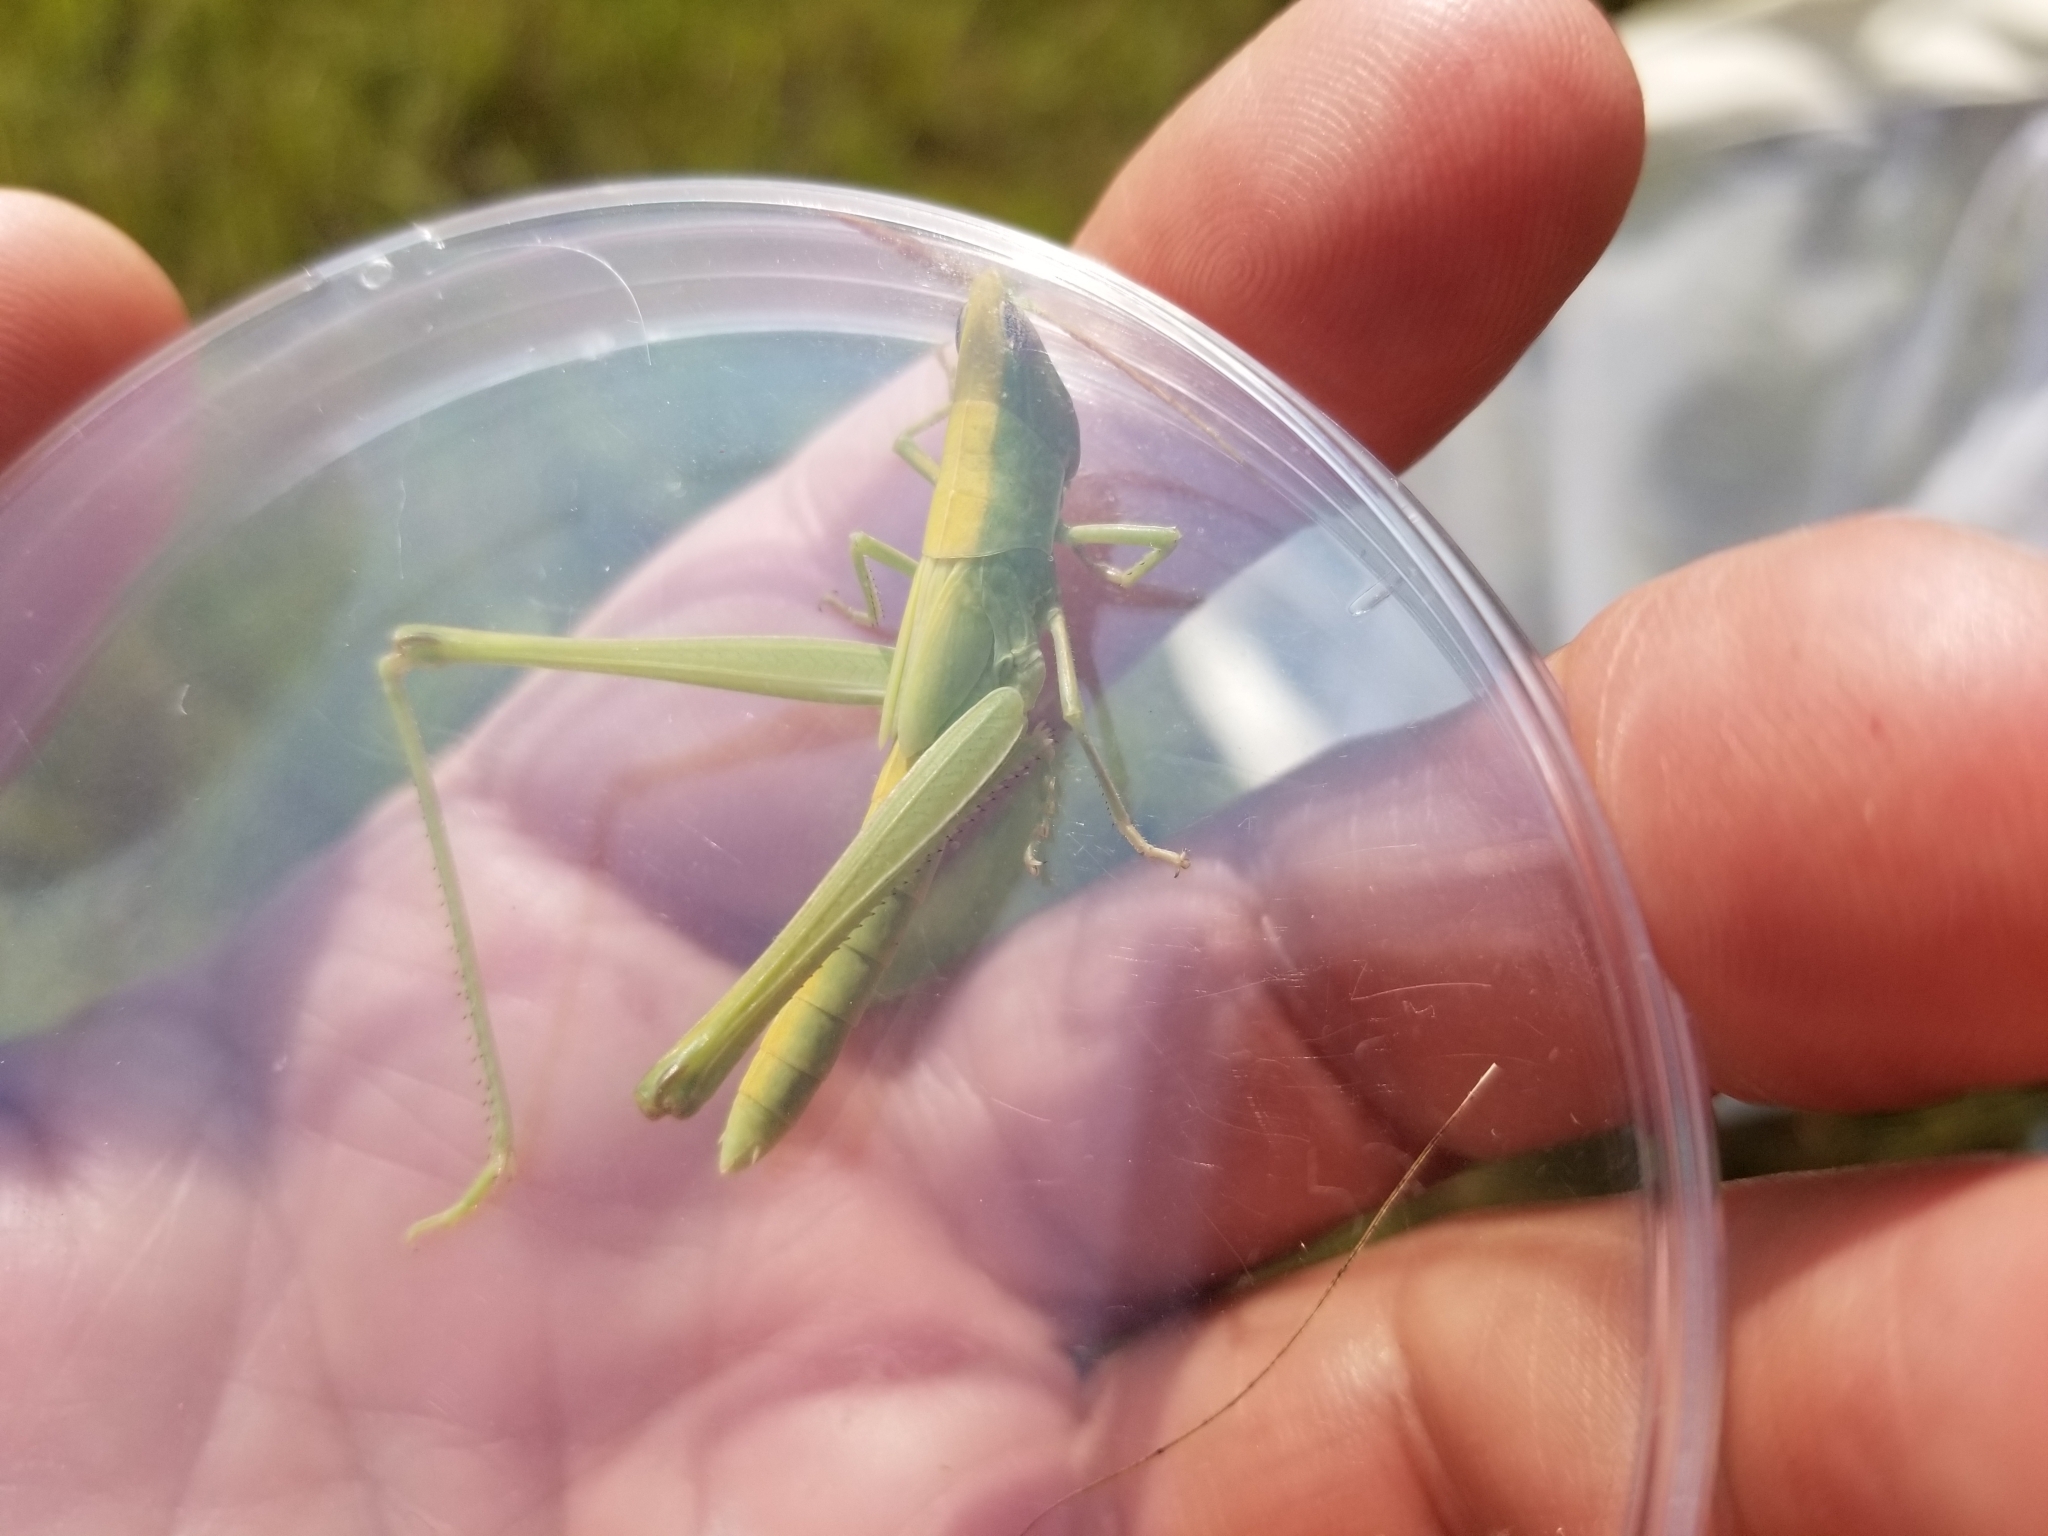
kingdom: Animalia
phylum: Arthropoda
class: Insecta
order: Orthoptera
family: Acrididae
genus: Mermiria
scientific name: Mermiria bivittata
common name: Two-striped mermiria grasshopper
